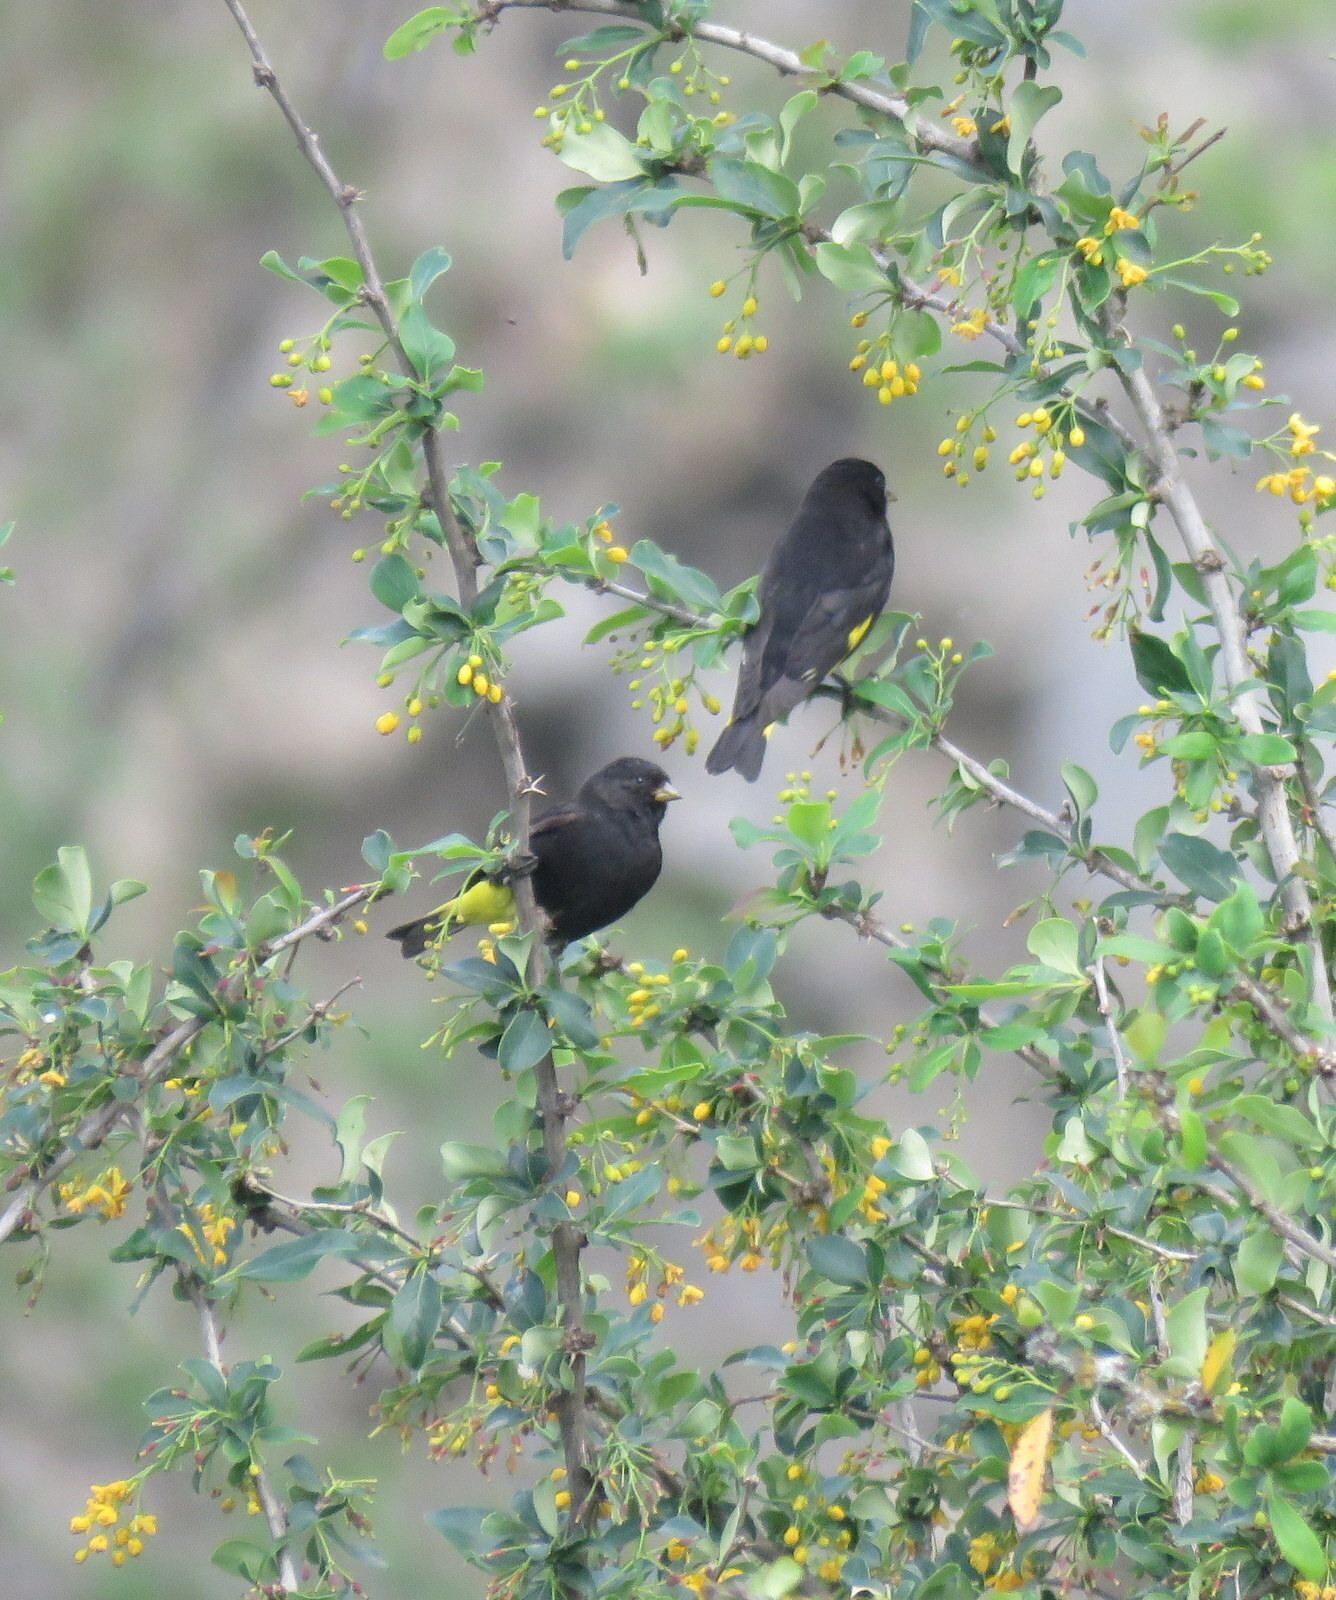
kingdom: Animalia
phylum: Chordata
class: Aves
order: Passeriformes
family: Fringillidae
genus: Spinus
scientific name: Spinus atratus
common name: Black siskin
